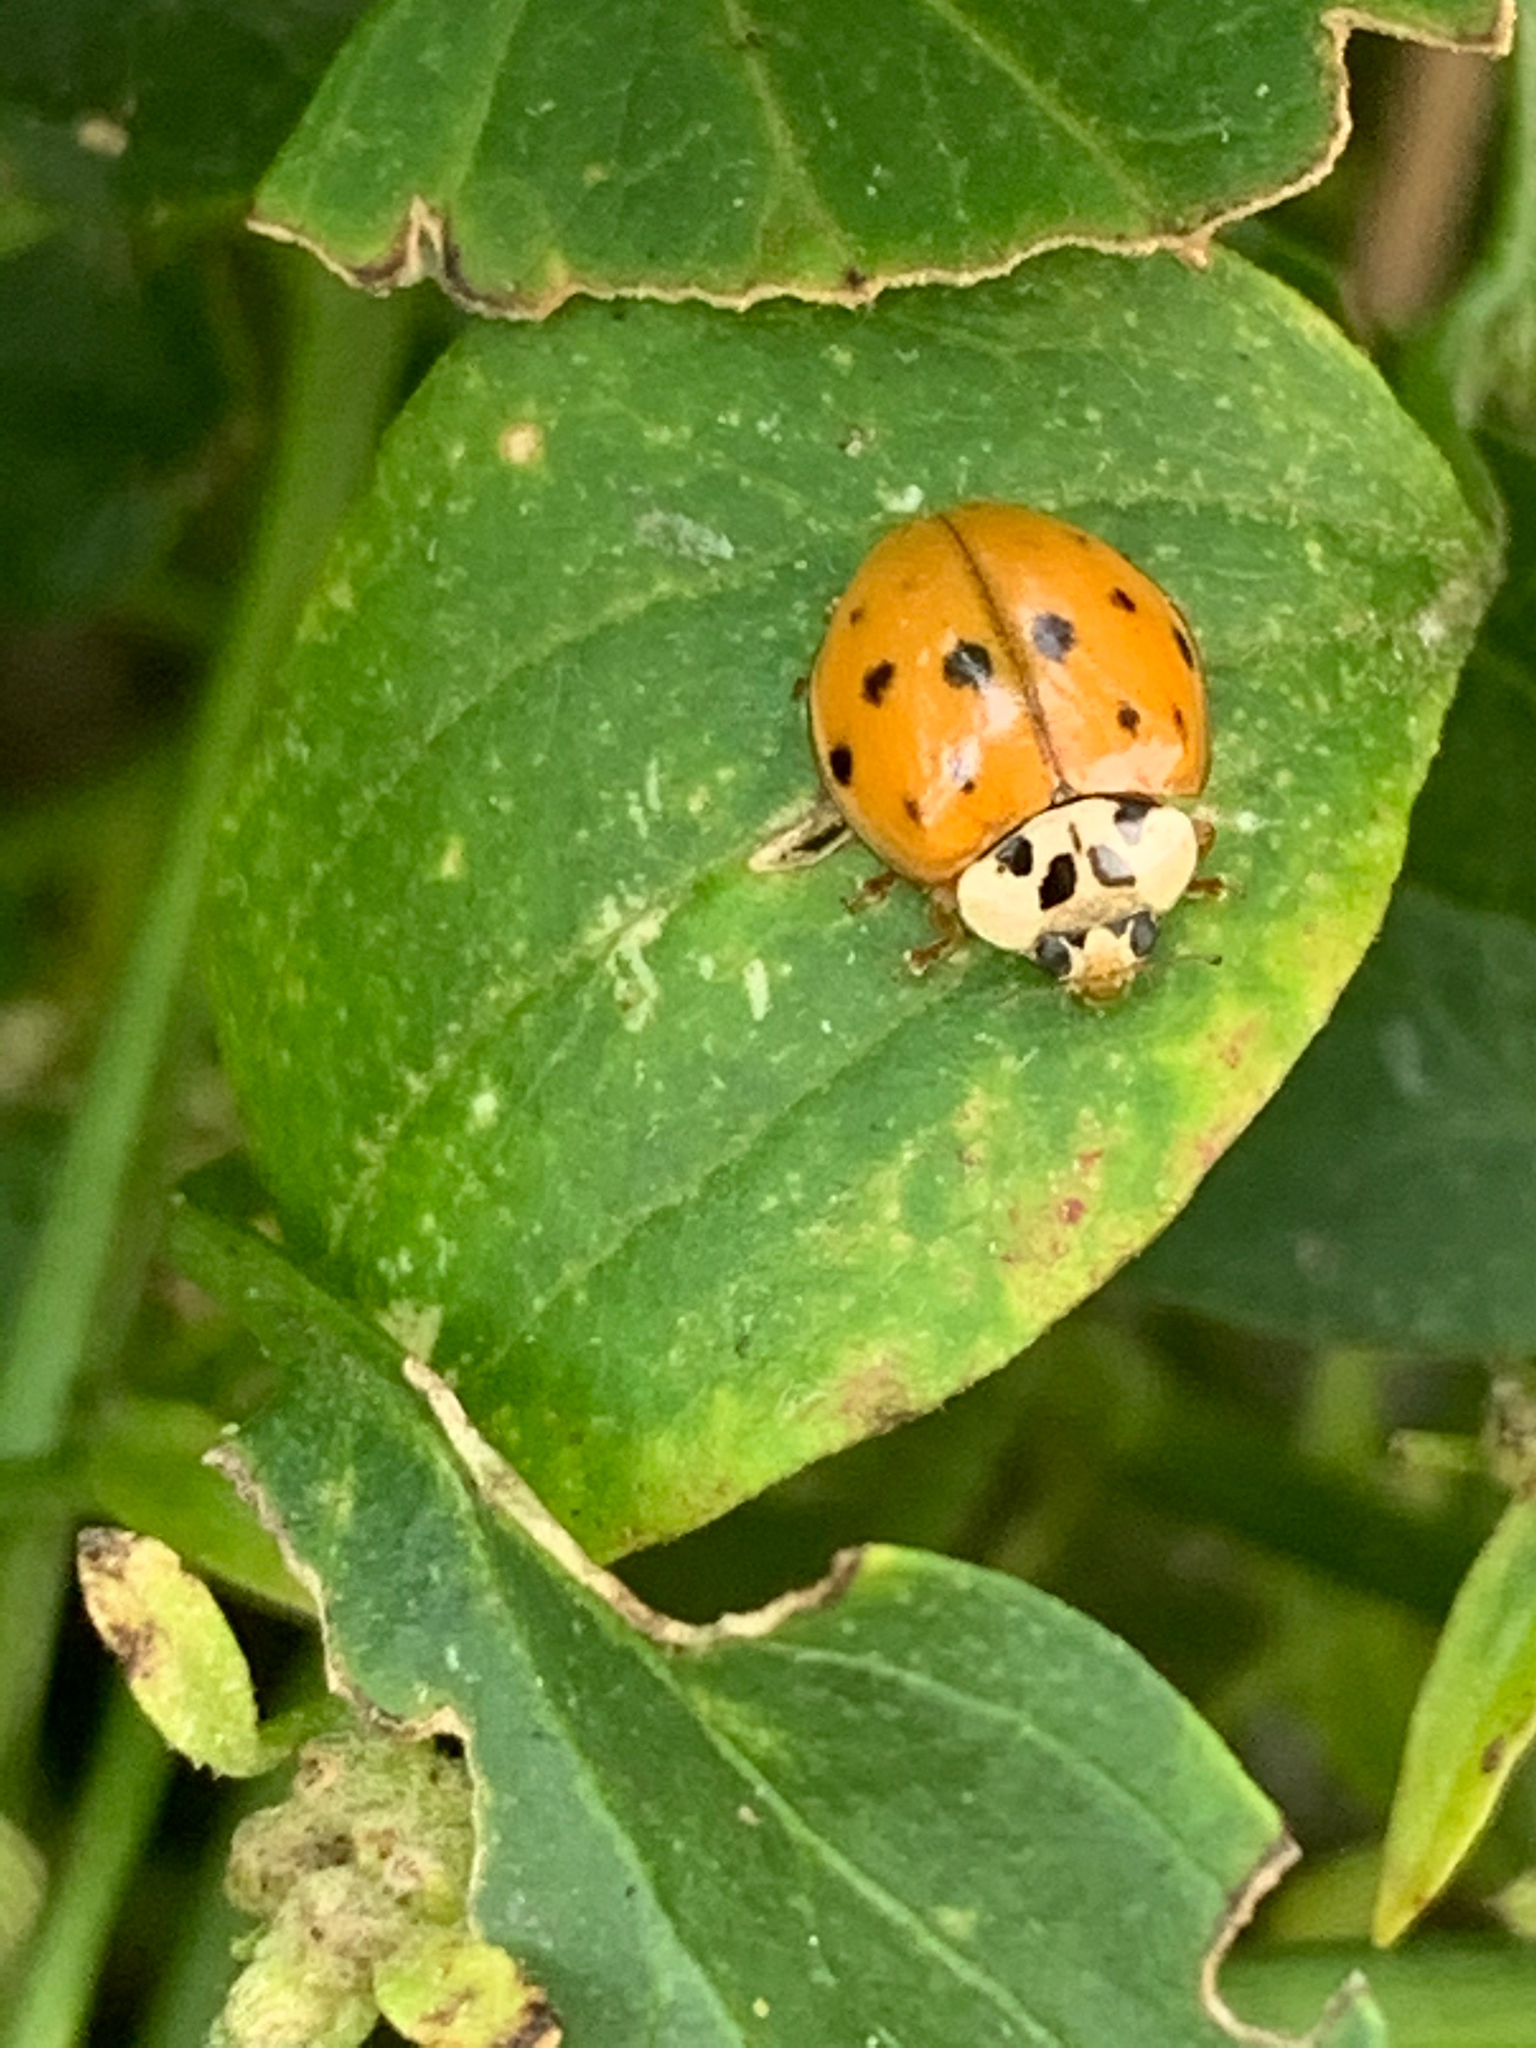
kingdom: Animalia
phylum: Arthropoda
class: Insecta
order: Coleoptera
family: Coccinellidae
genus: Harmonia
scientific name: Harmonia axyridis
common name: Harlequin ladybird
